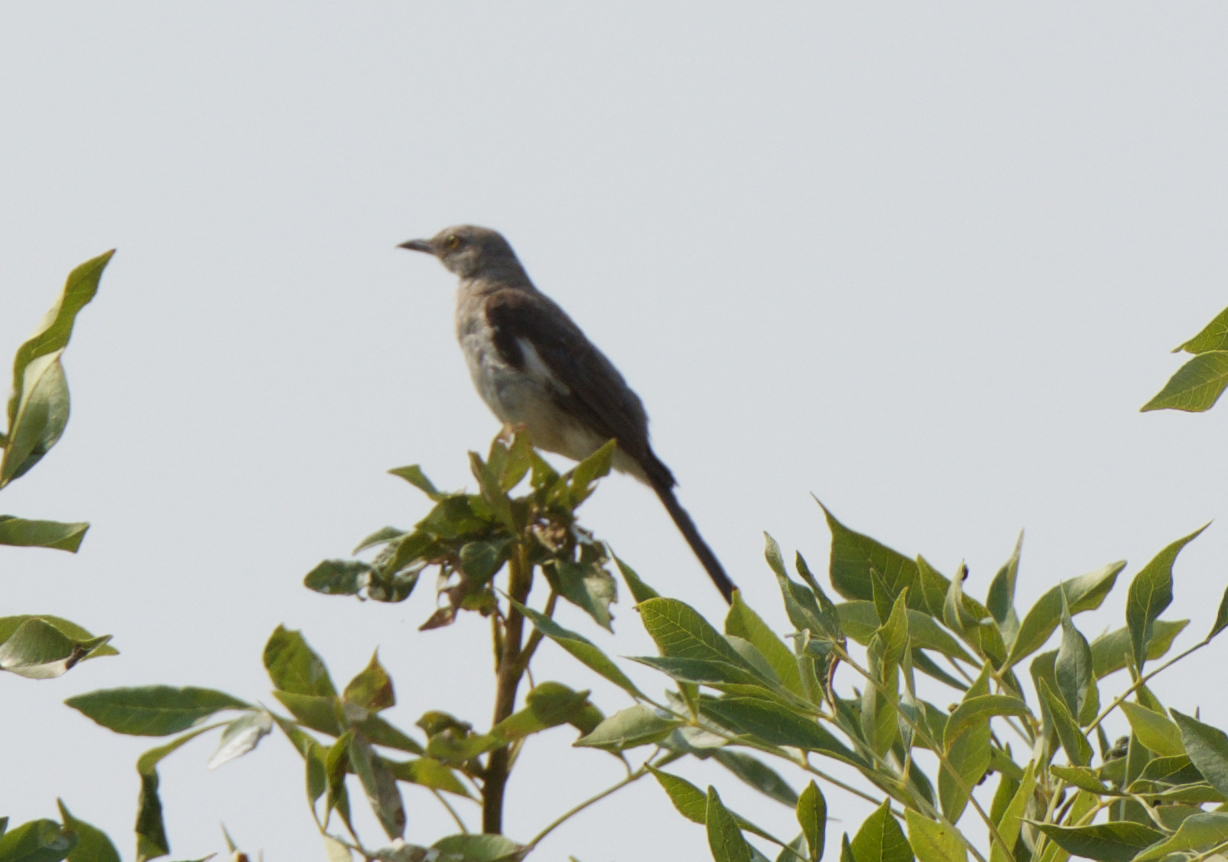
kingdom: Animalia
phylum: Chordata
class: Aves
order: Passeriformes
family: Mimidae
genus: Mimus
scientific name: Mimus polyglottos
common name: Northern mockingbird
